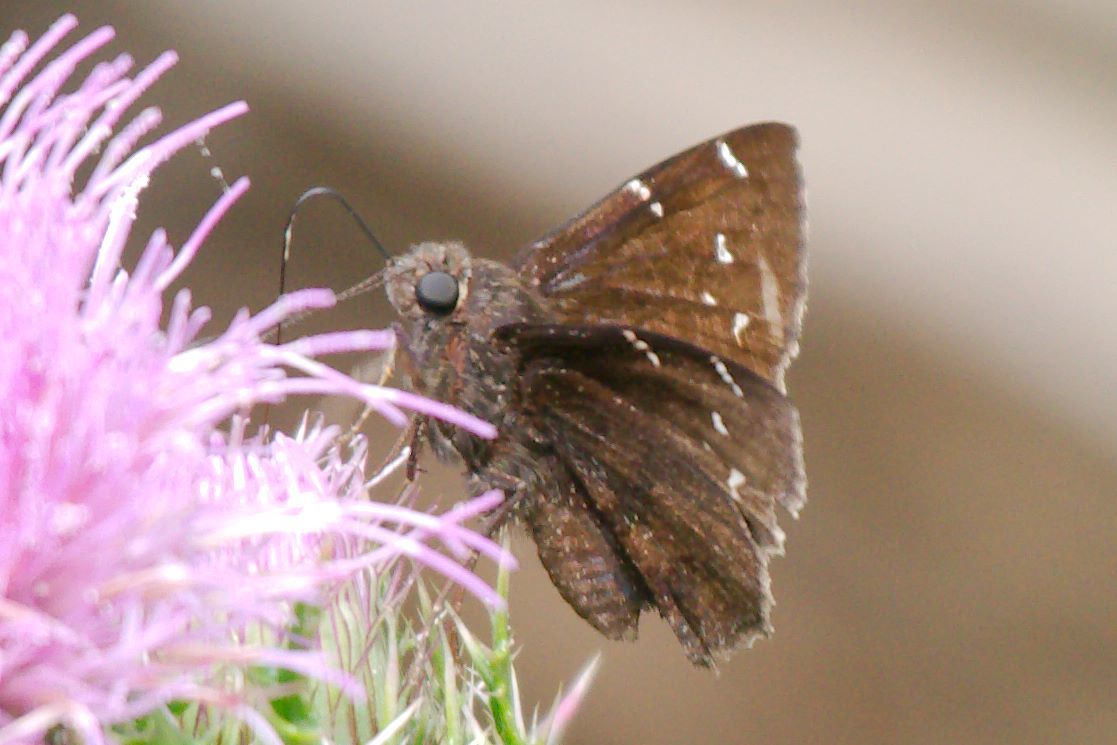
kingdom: Animalia
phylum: Arthropoda
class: Insecta
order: Lepidoptera
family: Hesperiidae
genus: Thorybes
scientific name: Thorybes pylades
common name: Northern cloudywing
